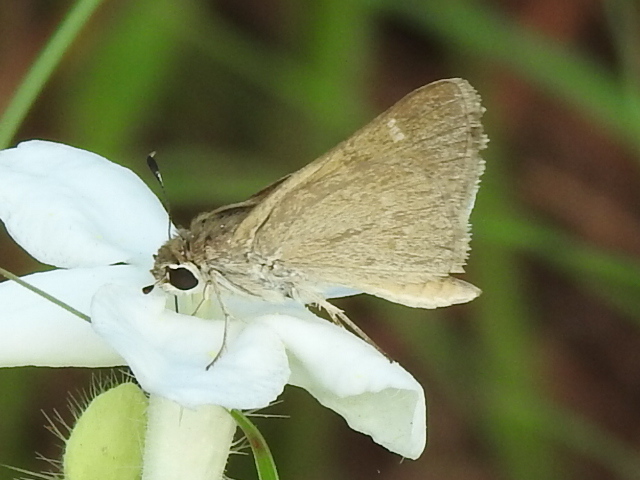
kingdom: Animalia
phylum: Arthropoda
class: Insecta
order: Lepidoptera
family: Hesperiidae
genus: Lerodea
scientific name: Lerodea eufala
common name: Eufala skipper
